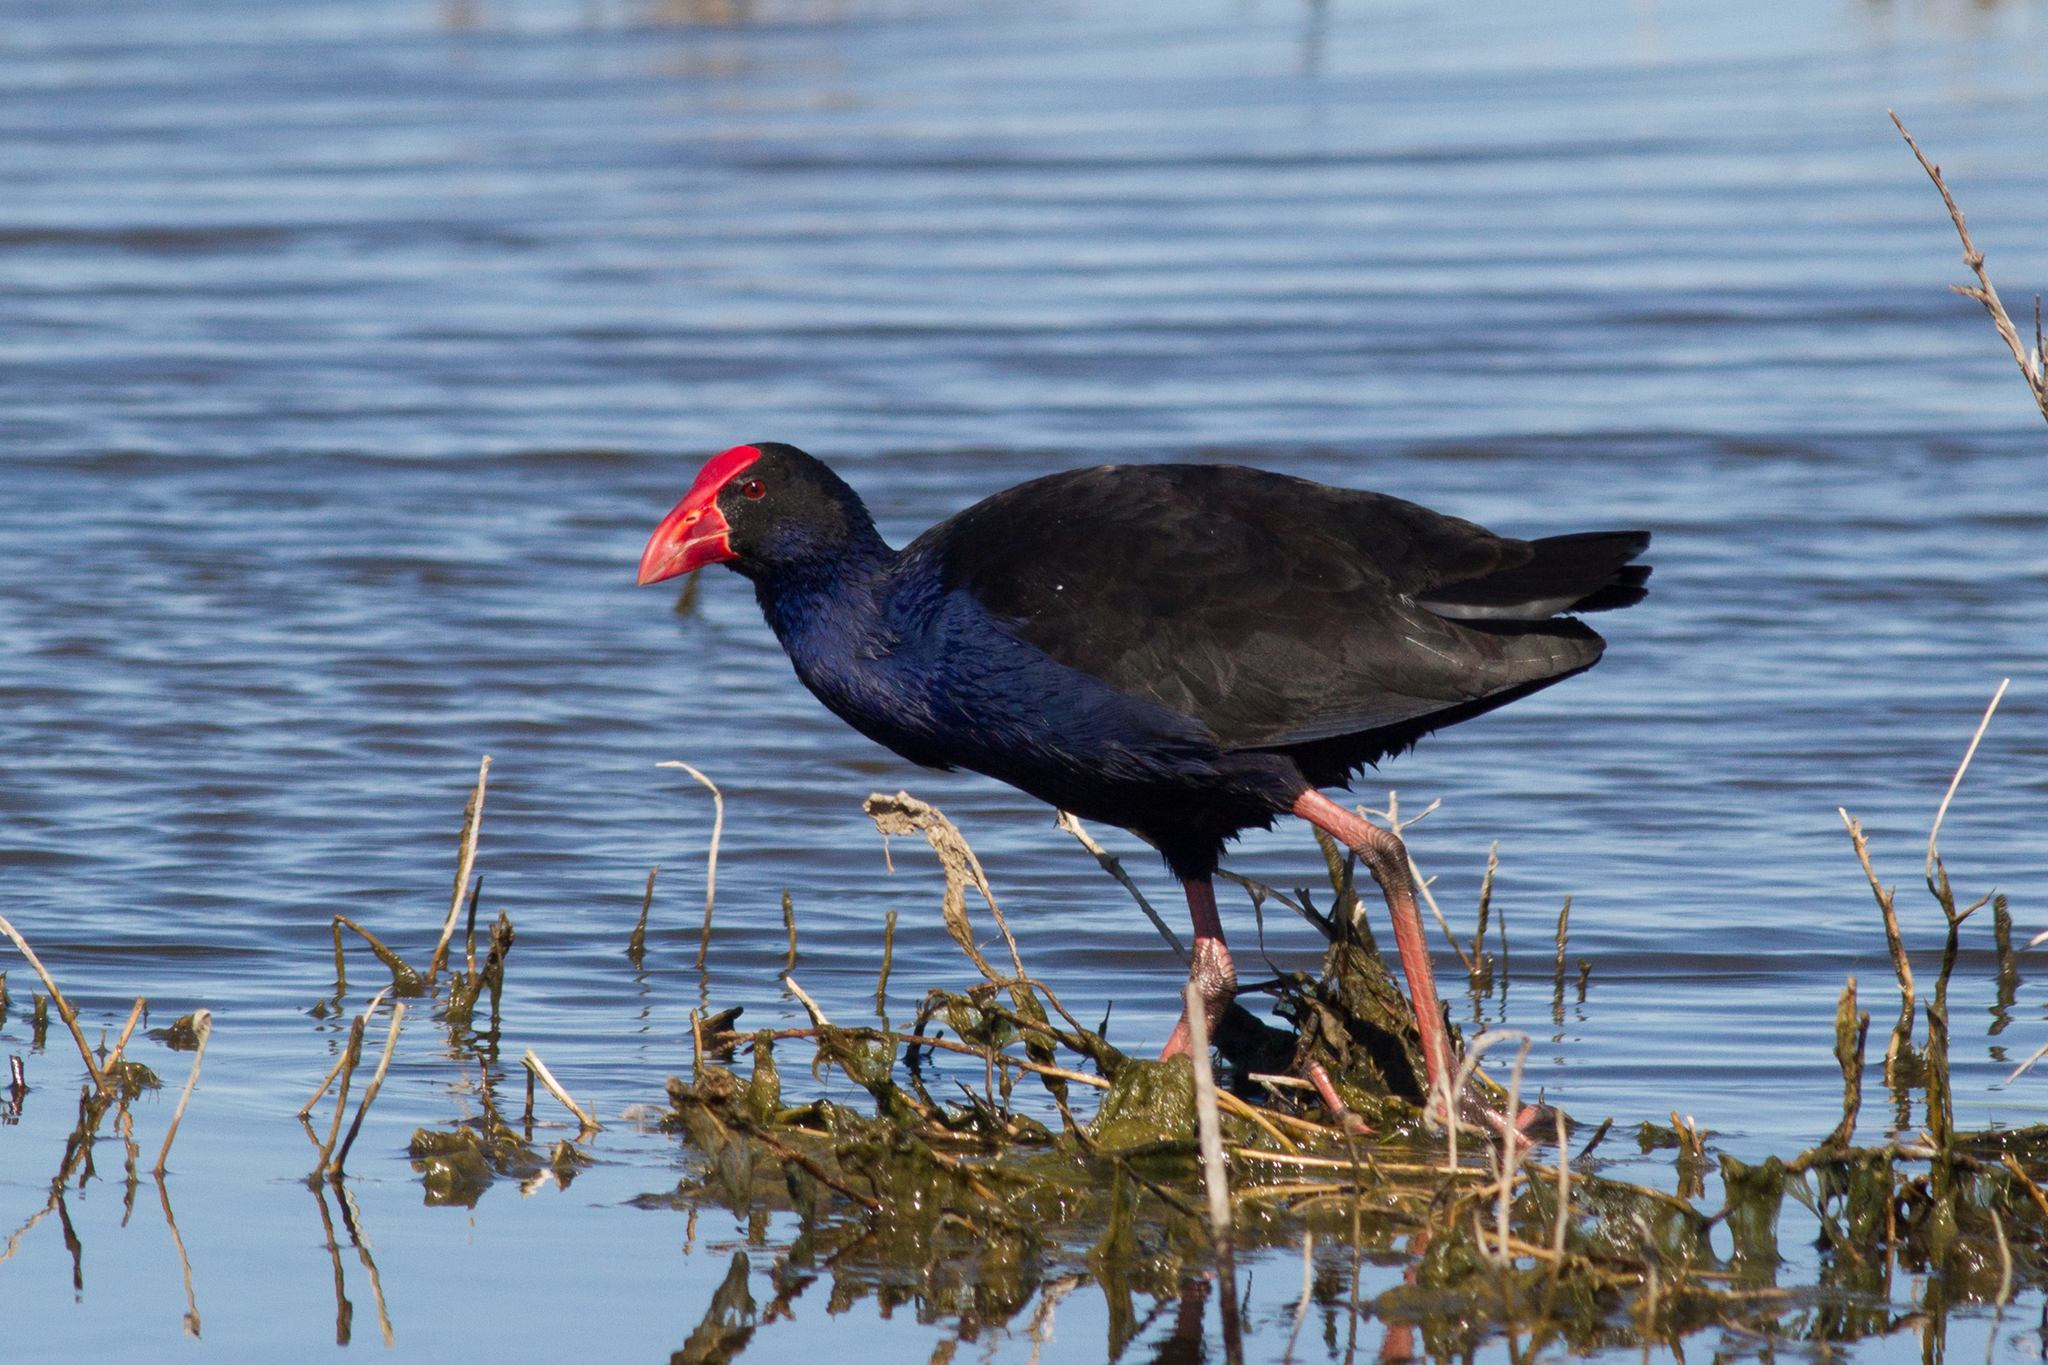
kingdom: Animalia
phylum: Chordata
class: Aves
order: Gruiformes
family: Rallidae
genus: Porphyrio
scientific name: Porphyrio melanotus
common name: Australasian swamphen
